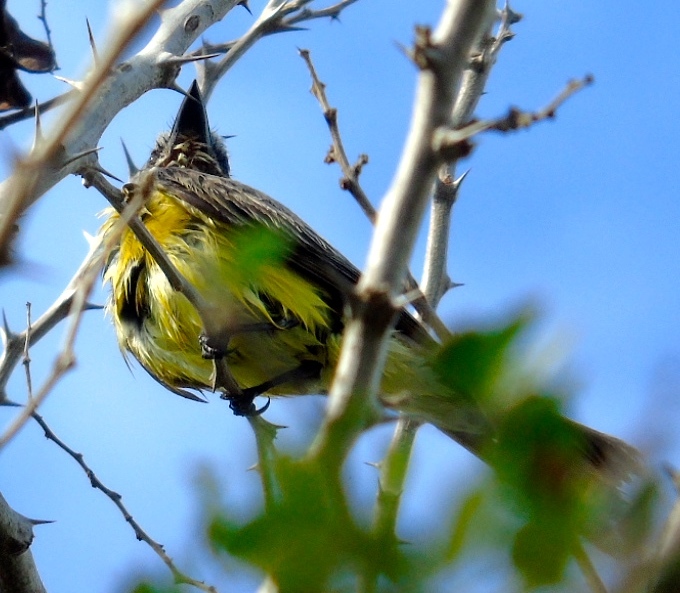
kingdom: Animalia
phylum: Chordata
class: Aves
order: Passeriformes
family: Tyrannidae
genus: Tyrannus
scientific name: Tyrannus melancholicus
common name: Tropical kingbird
